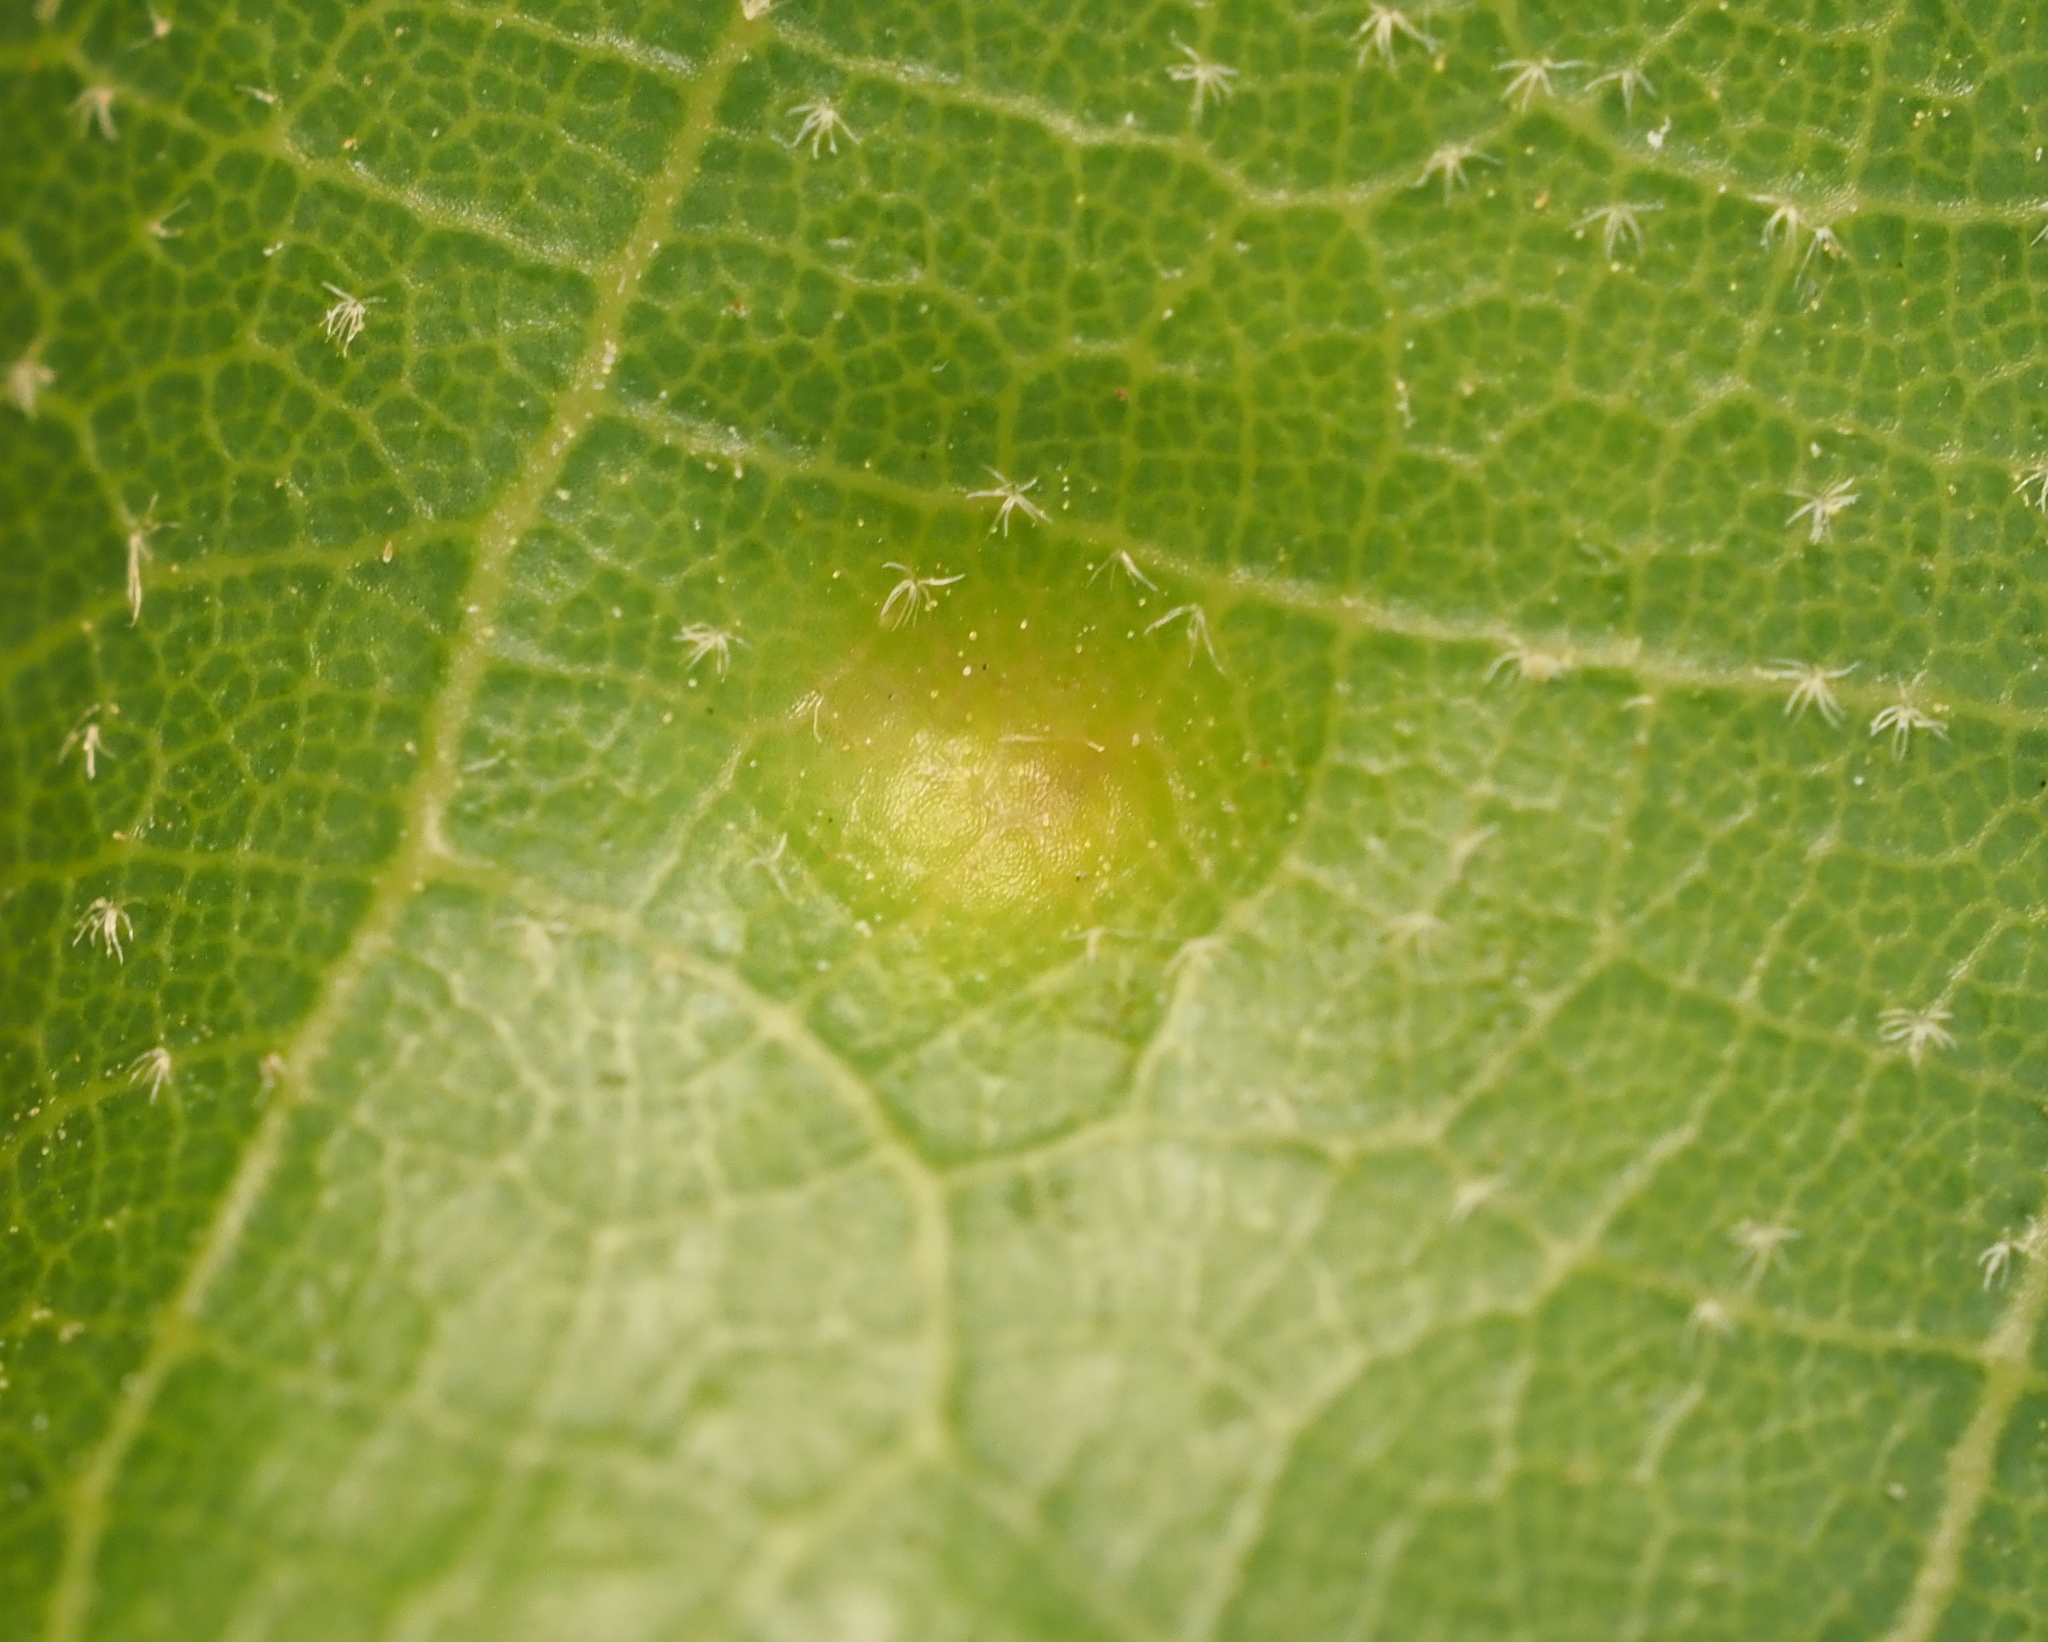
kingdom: Fungi
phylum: Ascomycota
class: Taphrinomycetes
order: Taphrinales
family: Taphrinaceae
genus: Taphrina
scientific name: Taphrina caerulescens
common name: Oak leaf blister
